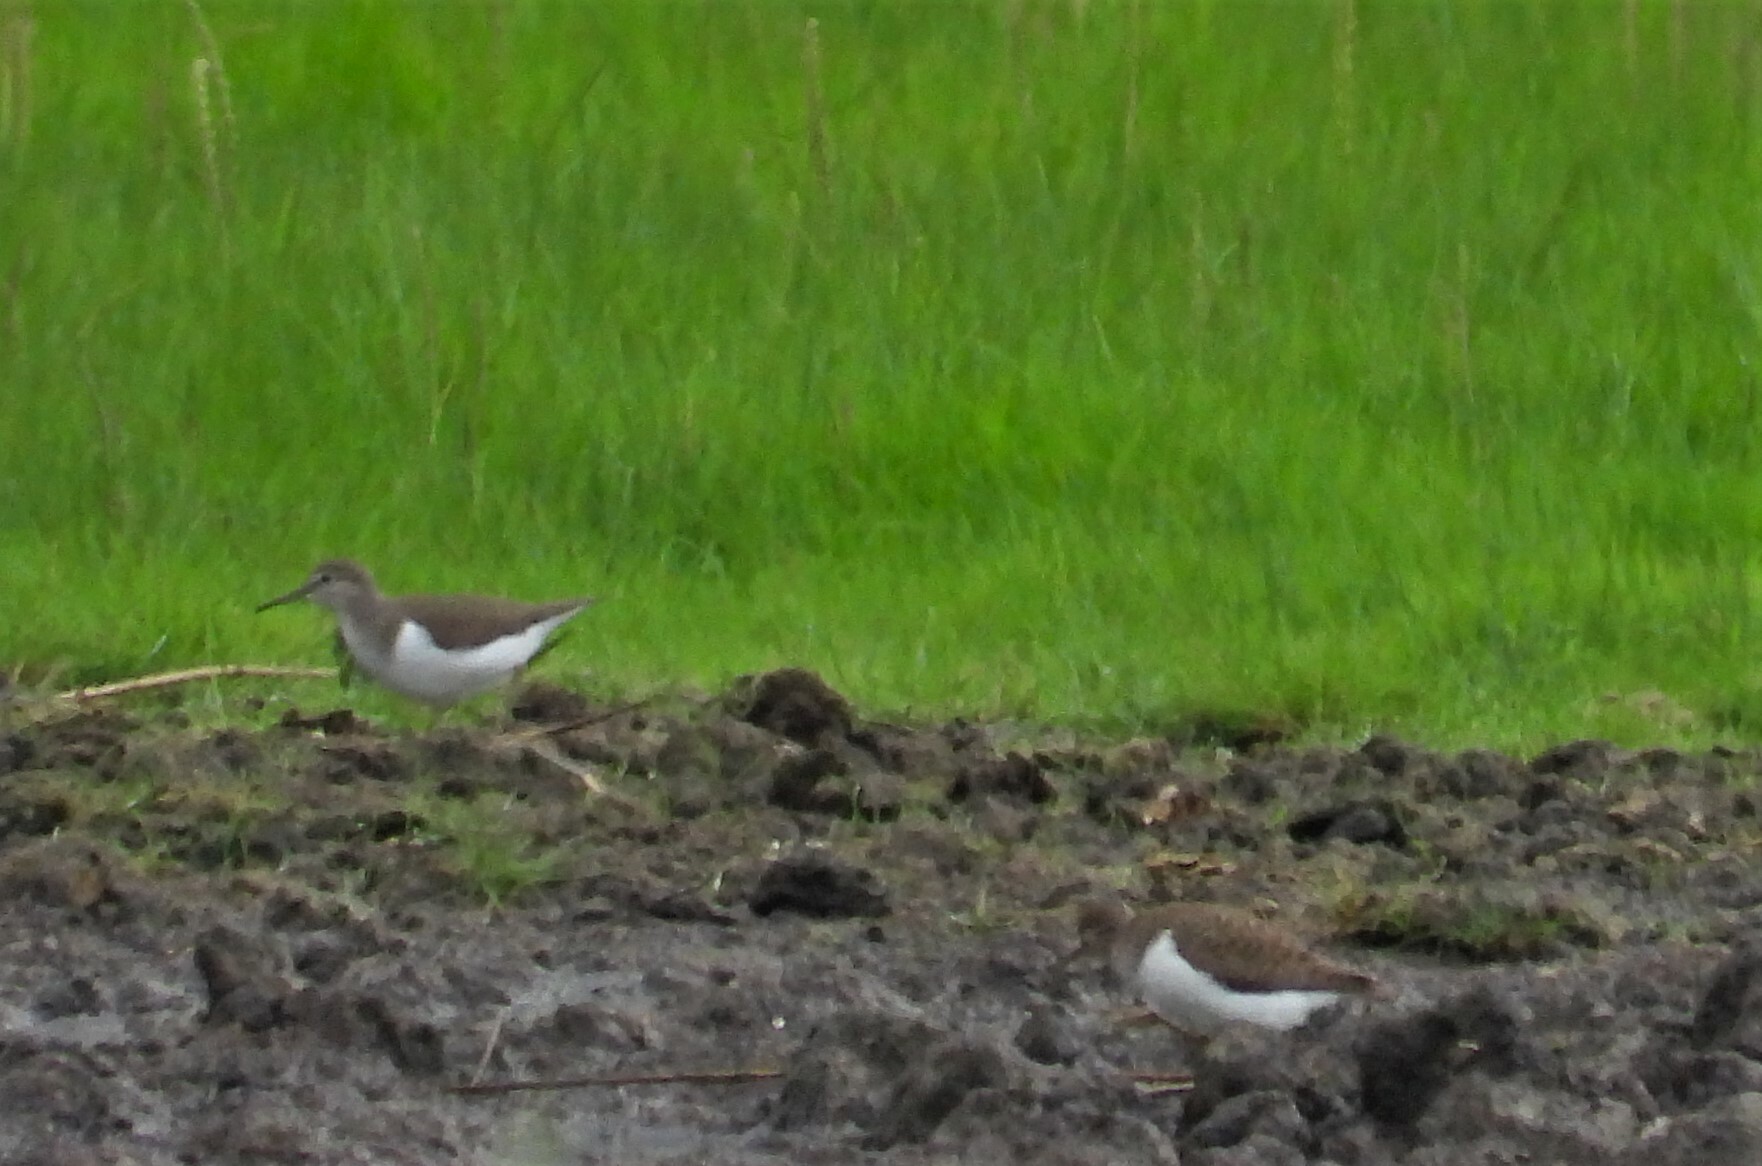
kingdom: Animalia
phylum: Chordata
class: Aves
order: Charadriiformes
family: Scolopacidae
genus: Actitis
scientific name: Actitis hypoleucos
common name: Common sandpiper
